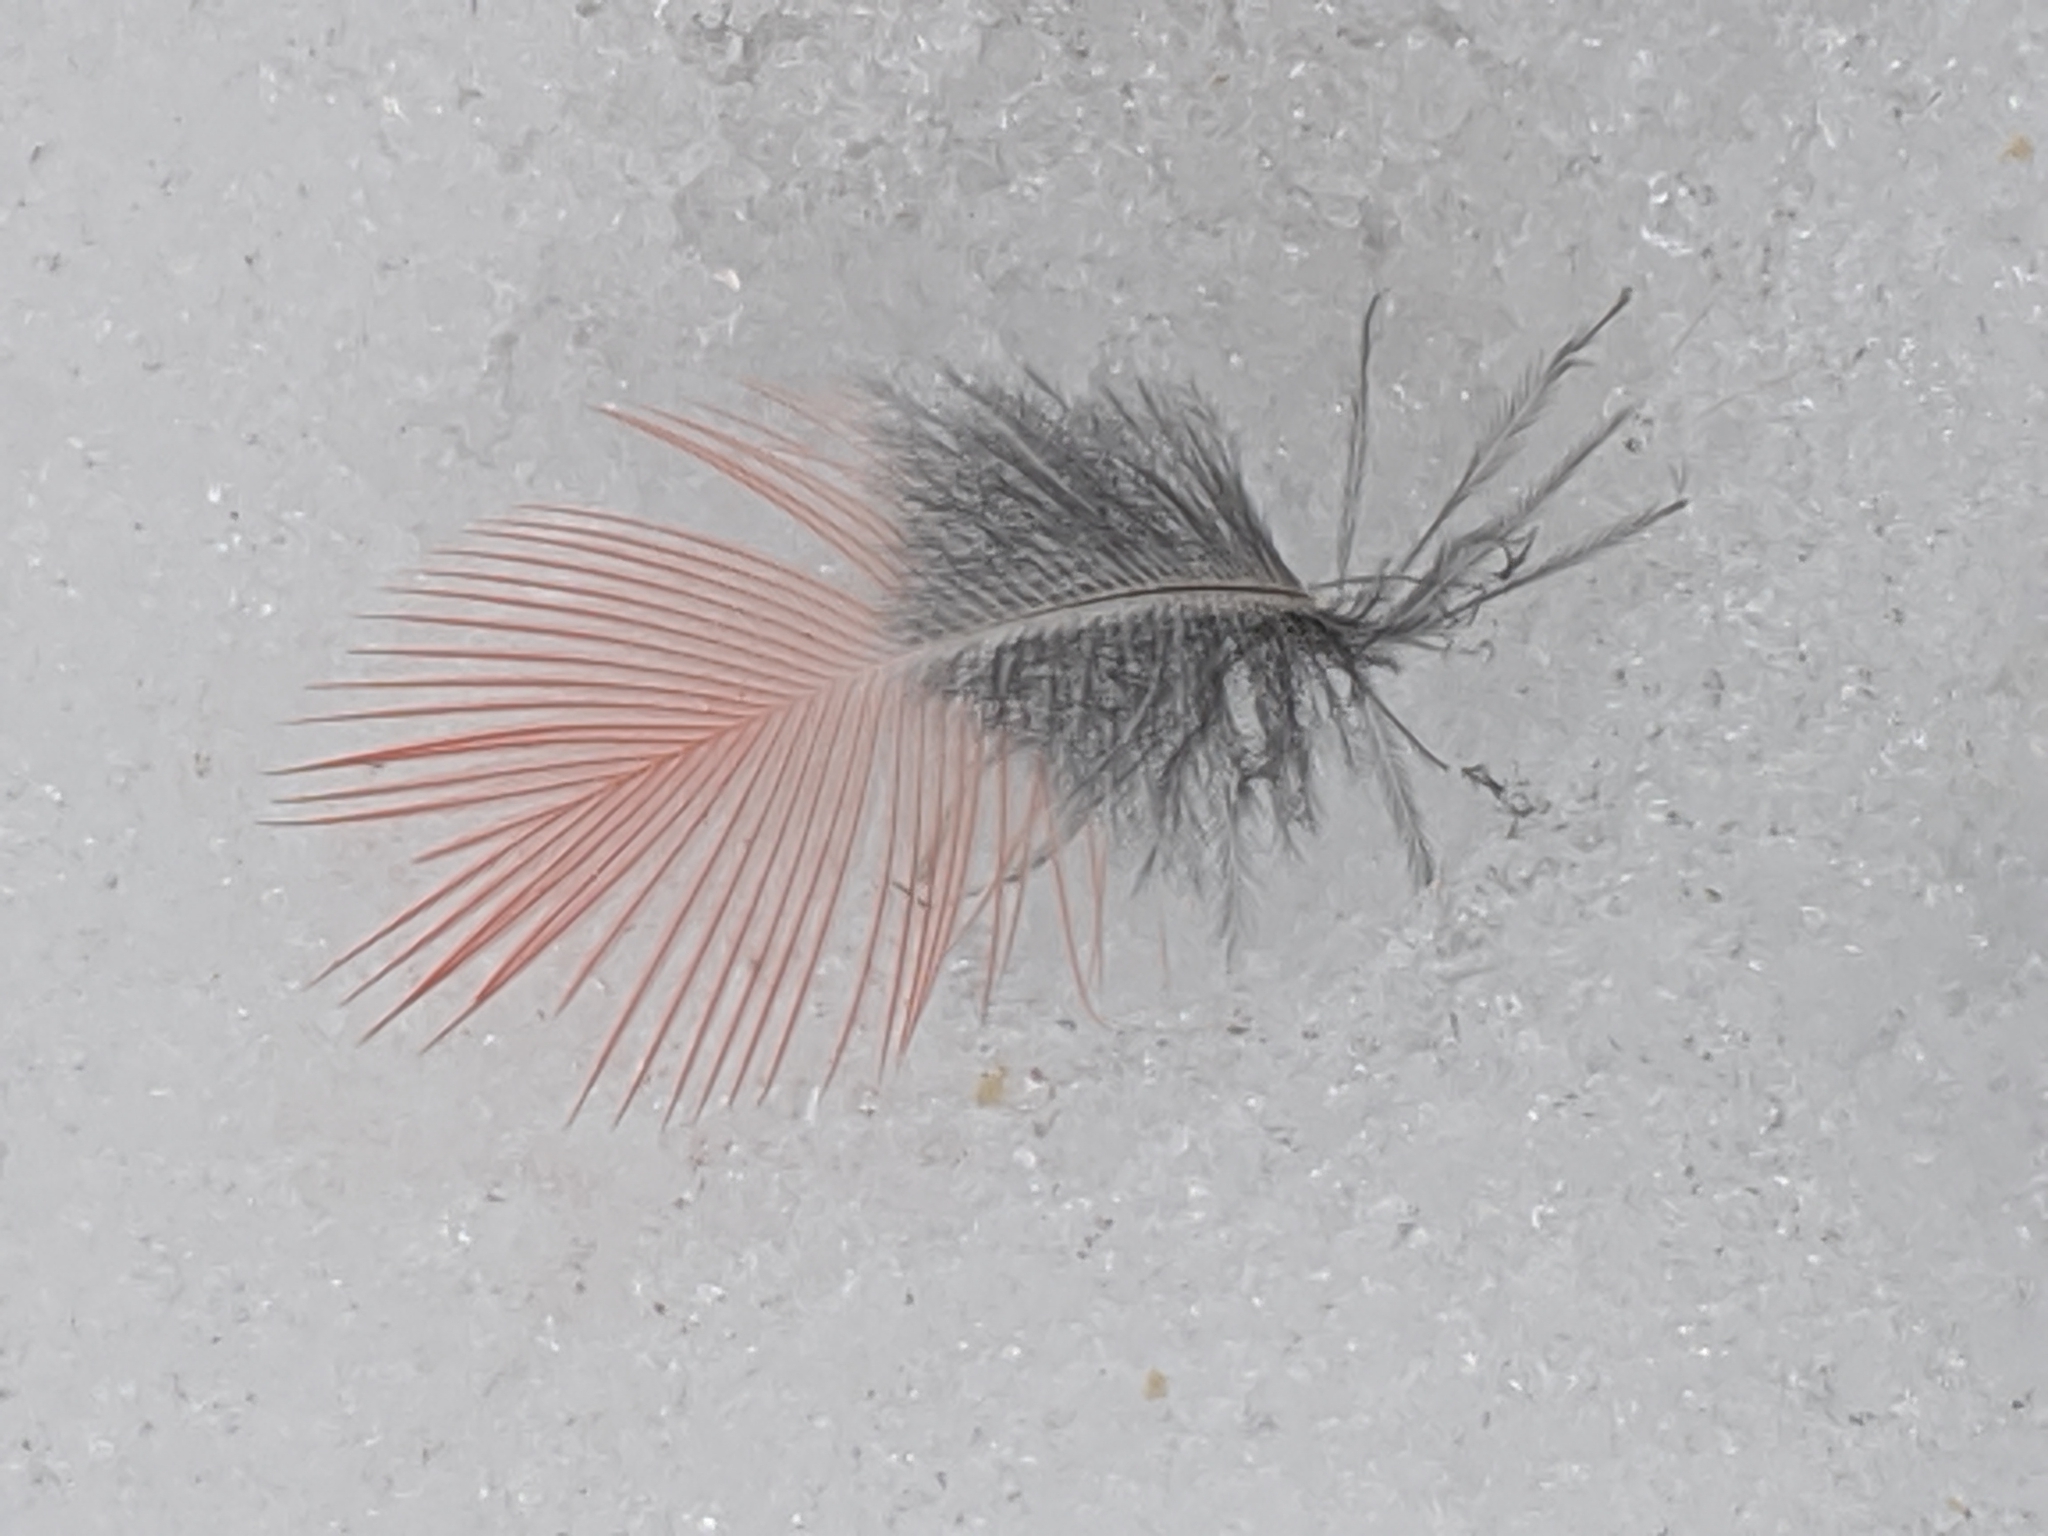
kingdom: Animalia
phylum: Chordata
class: Aves
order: Passeriformes
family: Cardinalidae
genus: Cardinalis
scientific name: Cardinalis cardinalis
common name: Northern cardinal
